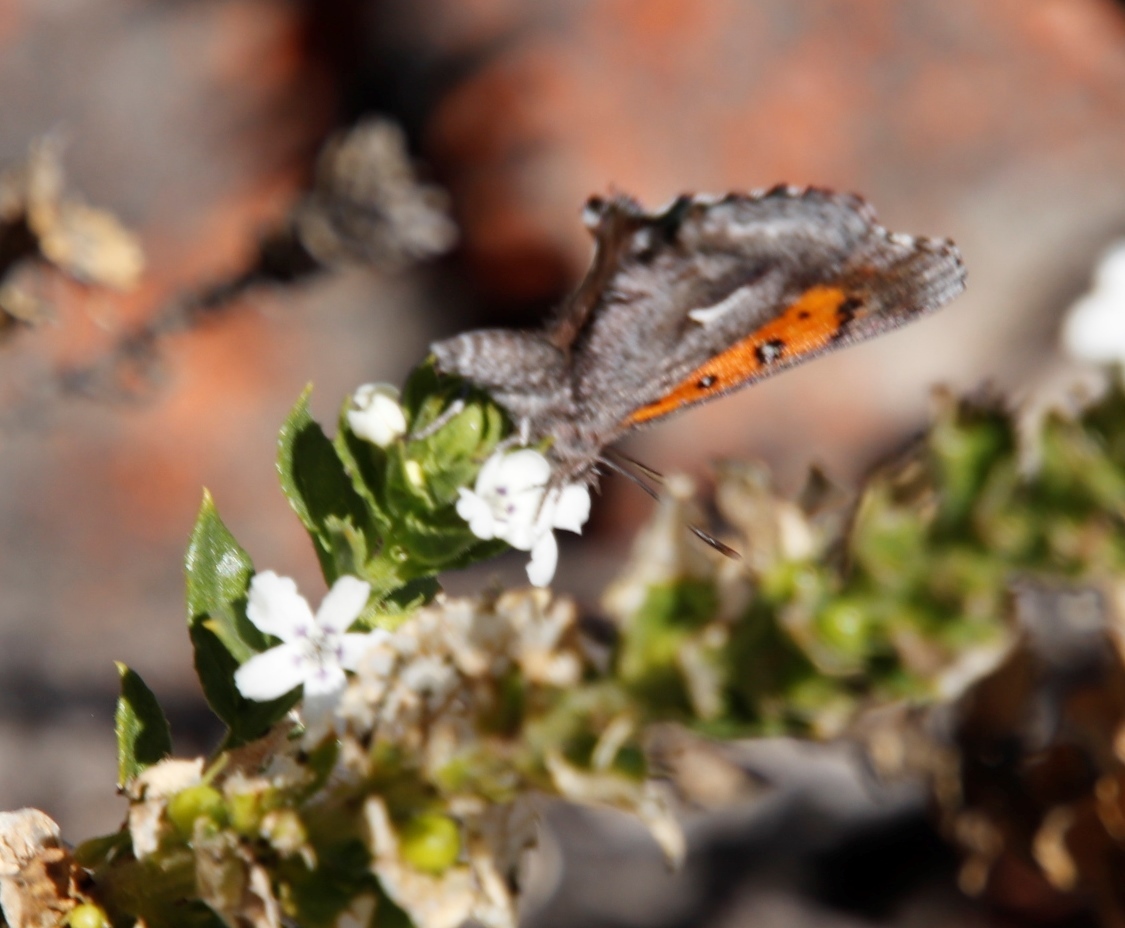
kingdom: Animalia
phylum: Arthropoda
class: Insecta
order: Lepidoptera
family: Lycaenidae
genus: Phasis
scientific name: Phasis clavum
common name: Namaqua arrowhead
